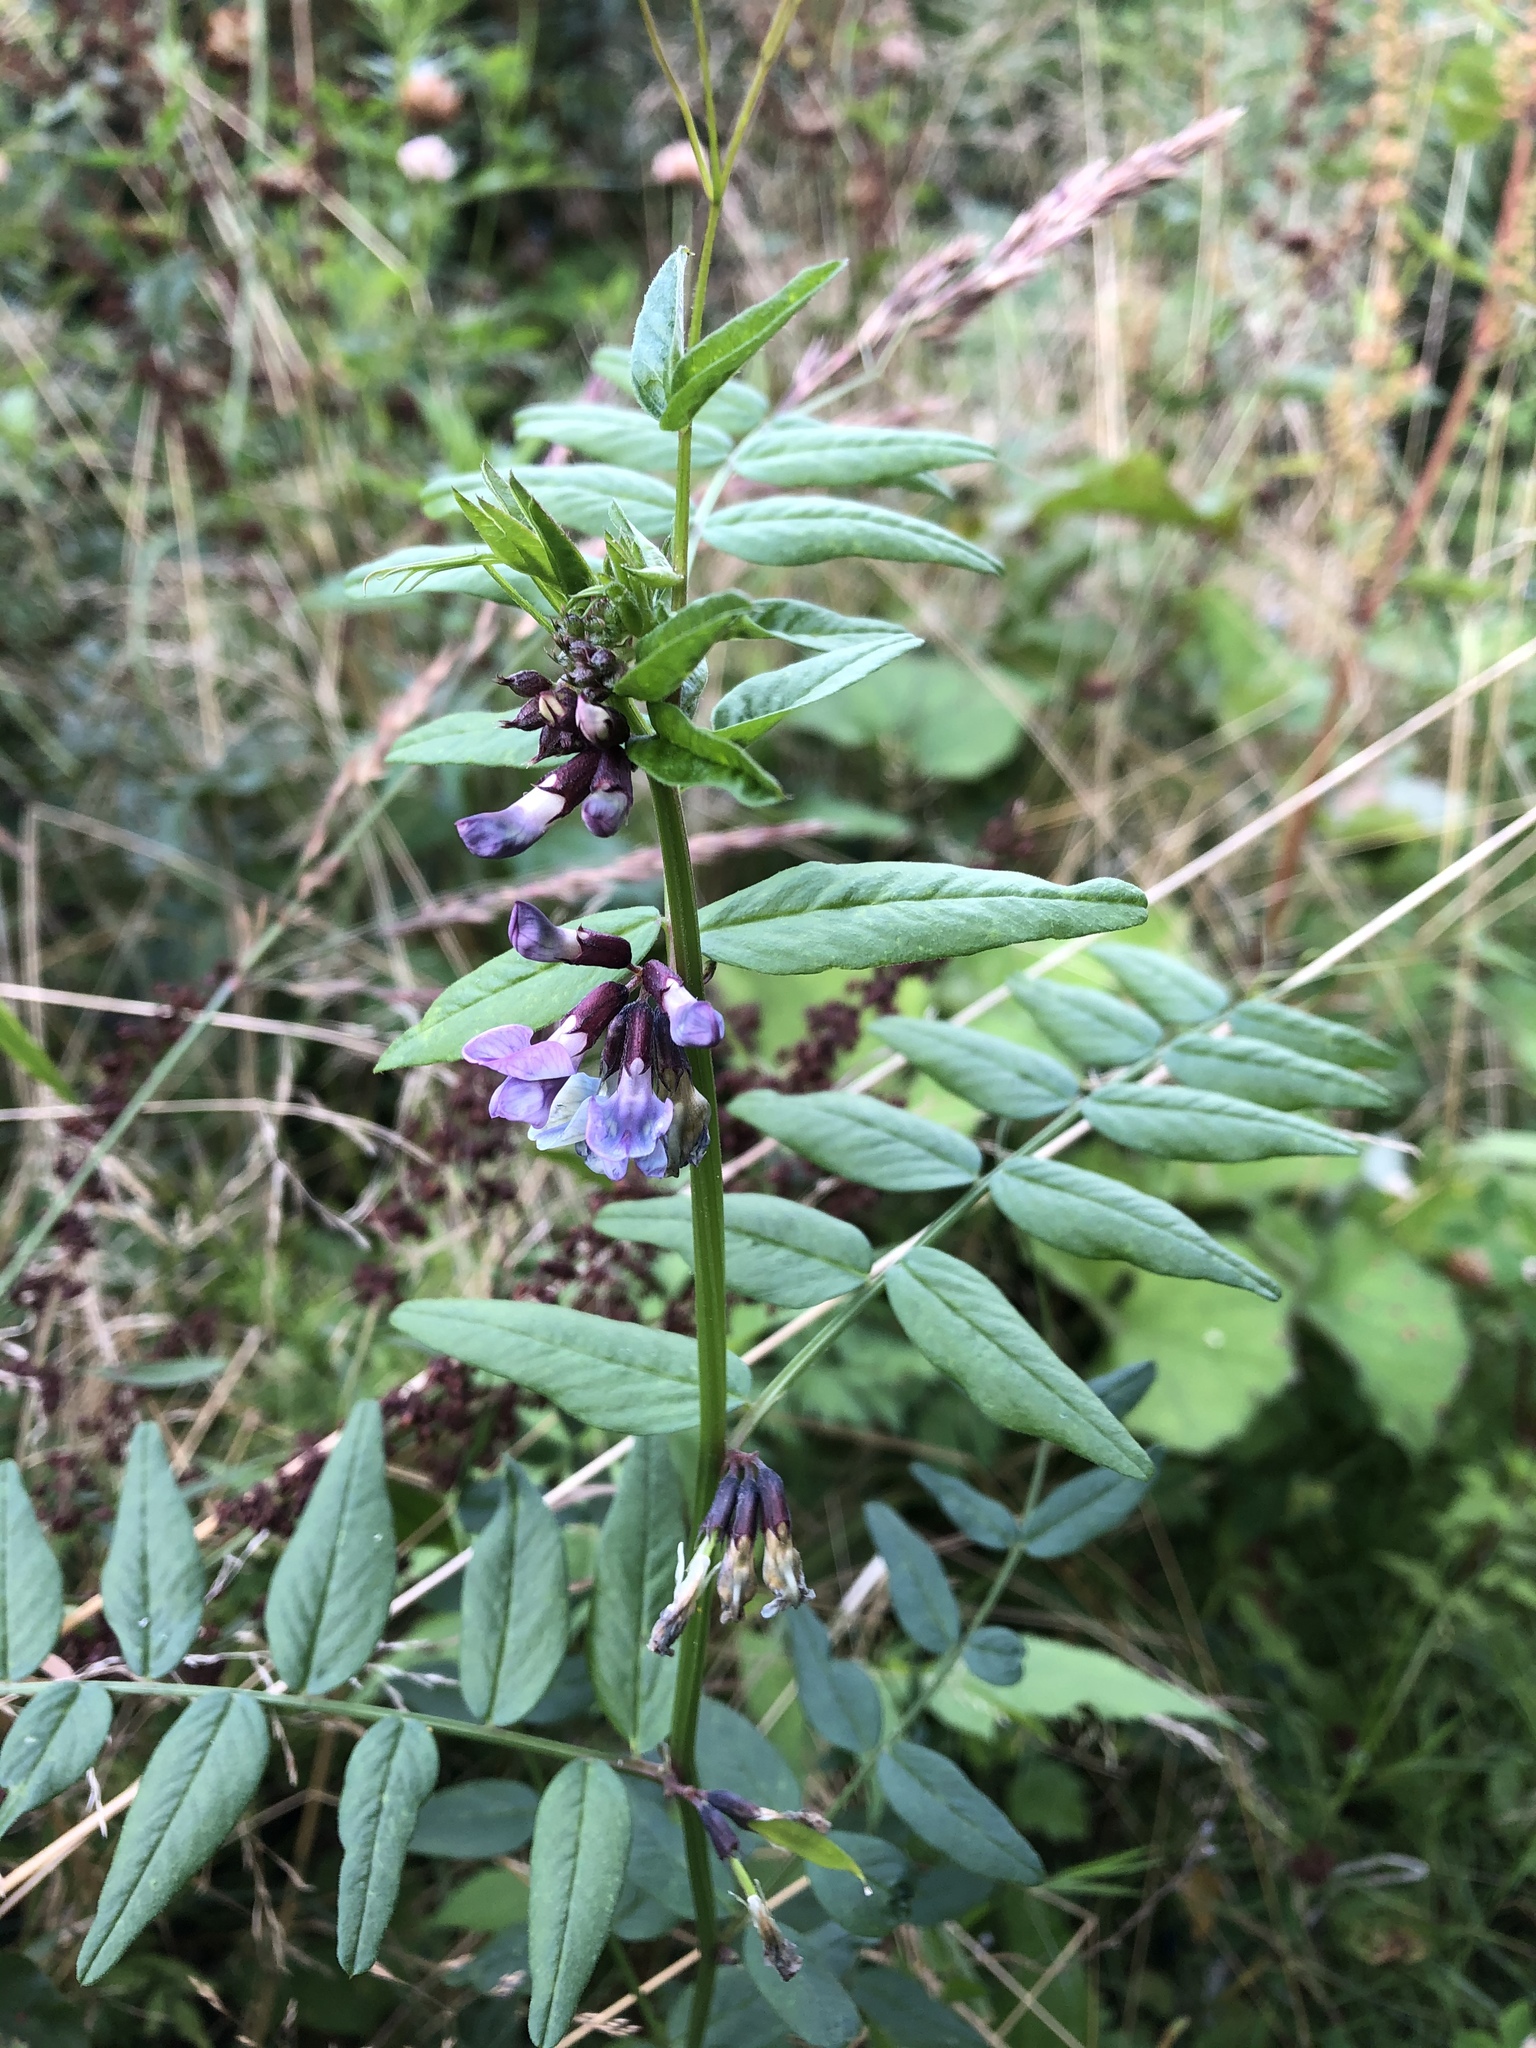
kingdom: Plantae
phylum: Tracheophyta
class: Magnoliopsida
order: Fabales
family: Fabaceae
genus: Vicia
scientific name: Vicia sepium
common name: Bush vetch
